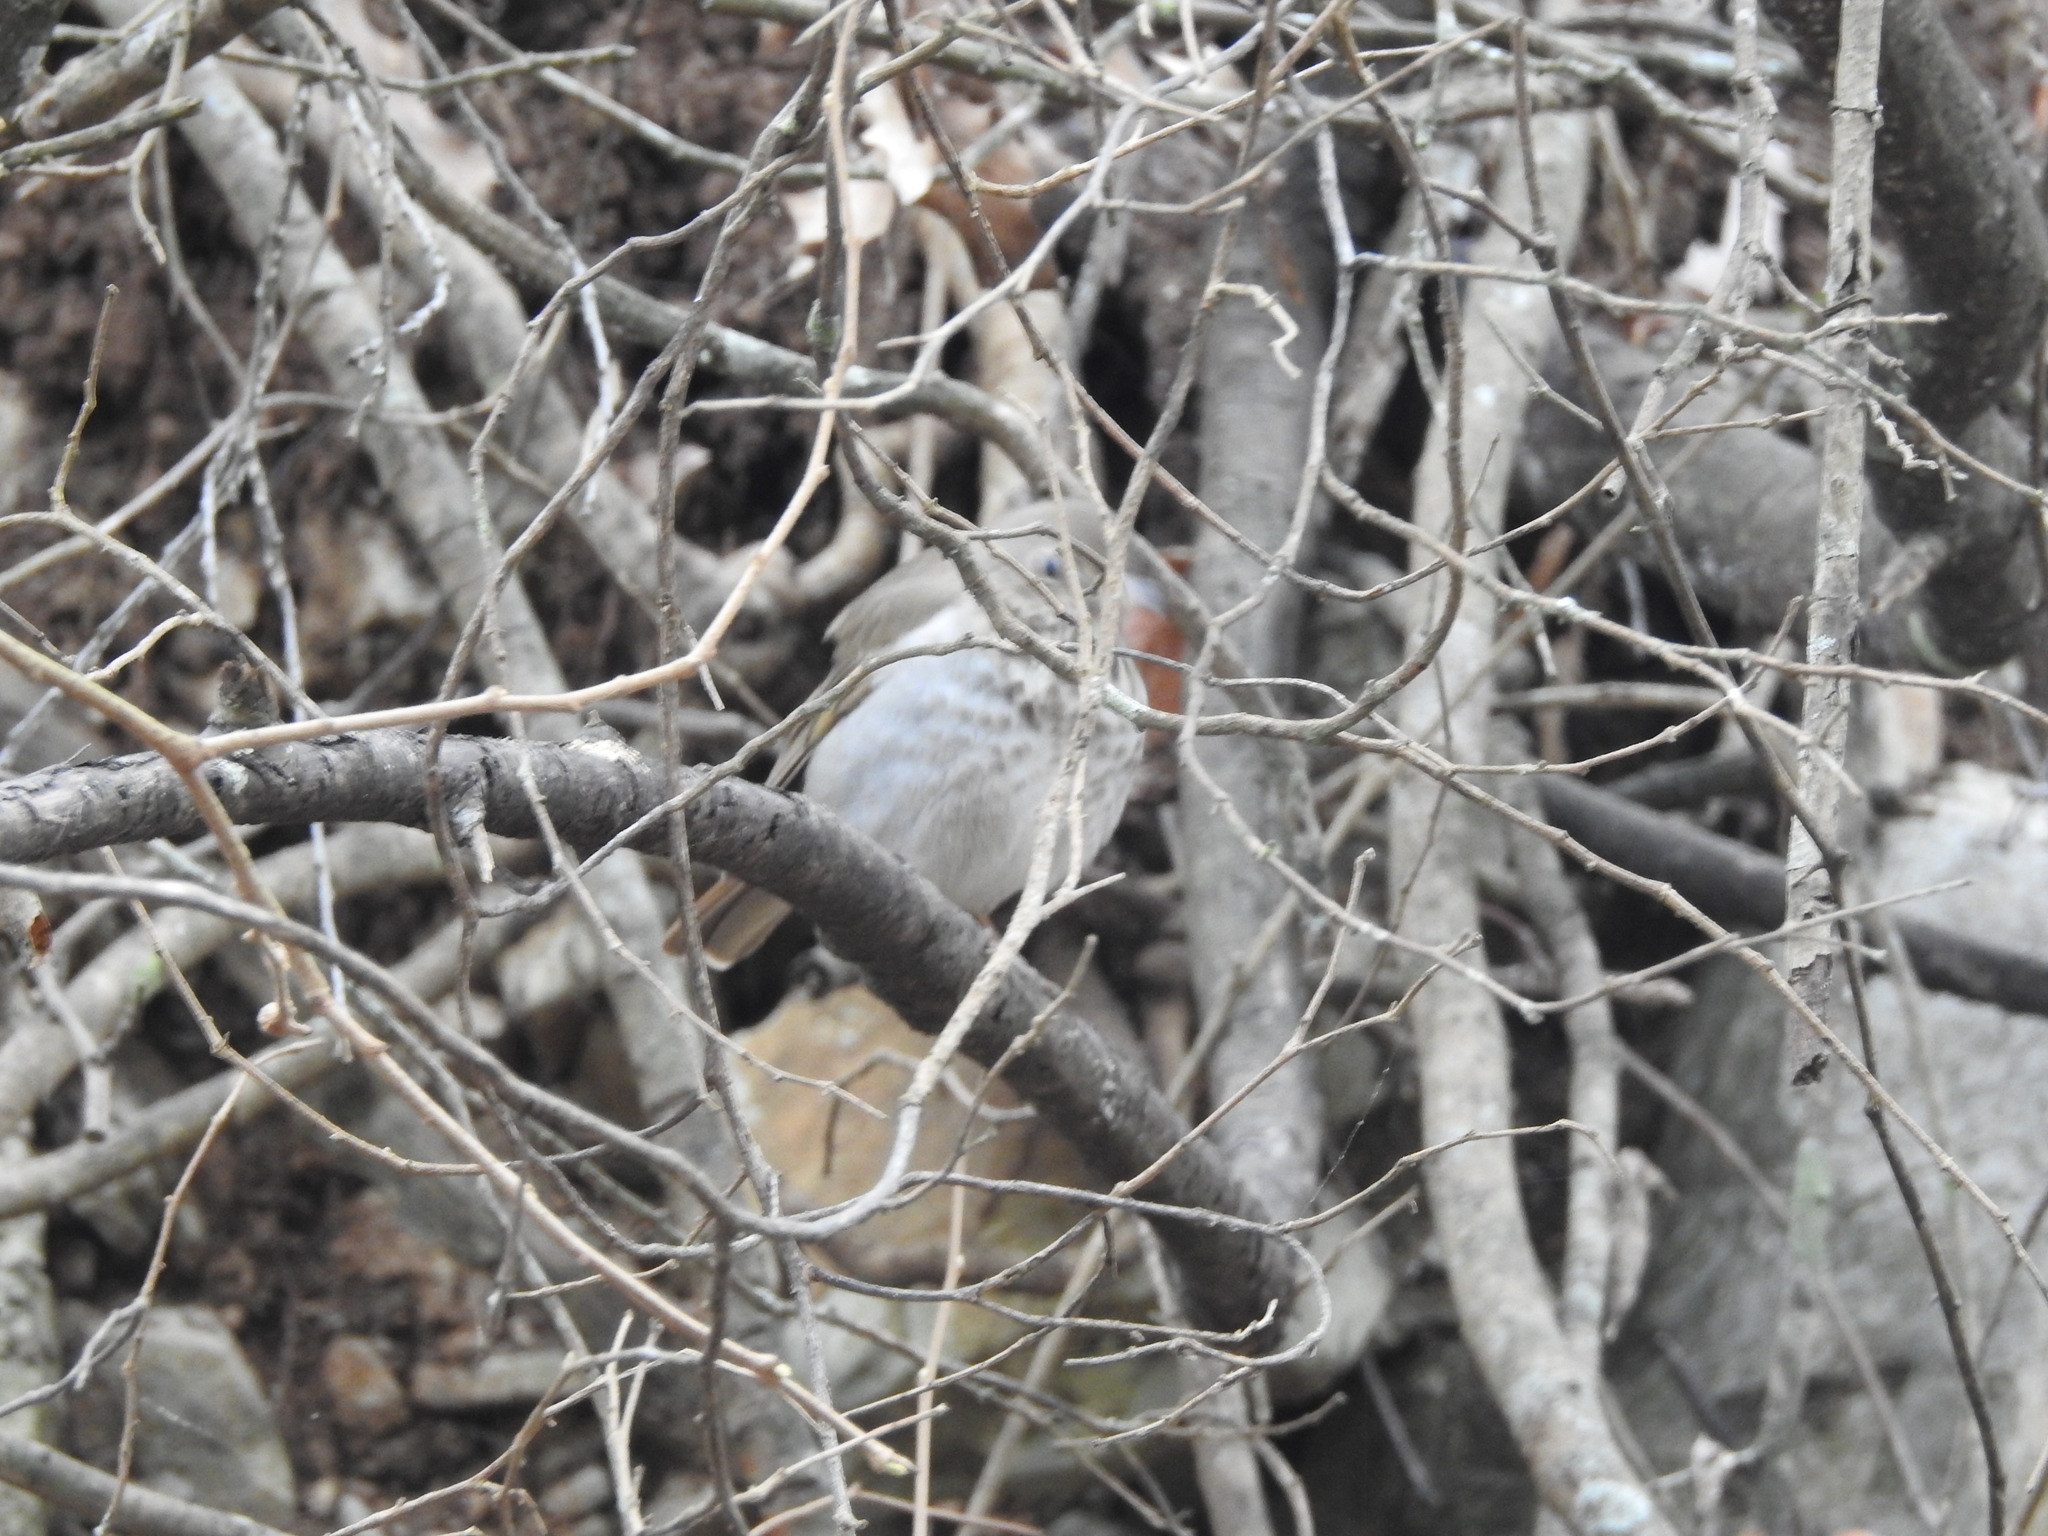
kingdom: Animalia
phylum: Chordata
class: Aves
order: Passeriformes
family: Turdidae
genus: Catharus
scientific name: Catharus guttatus
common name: Hermit thrush
